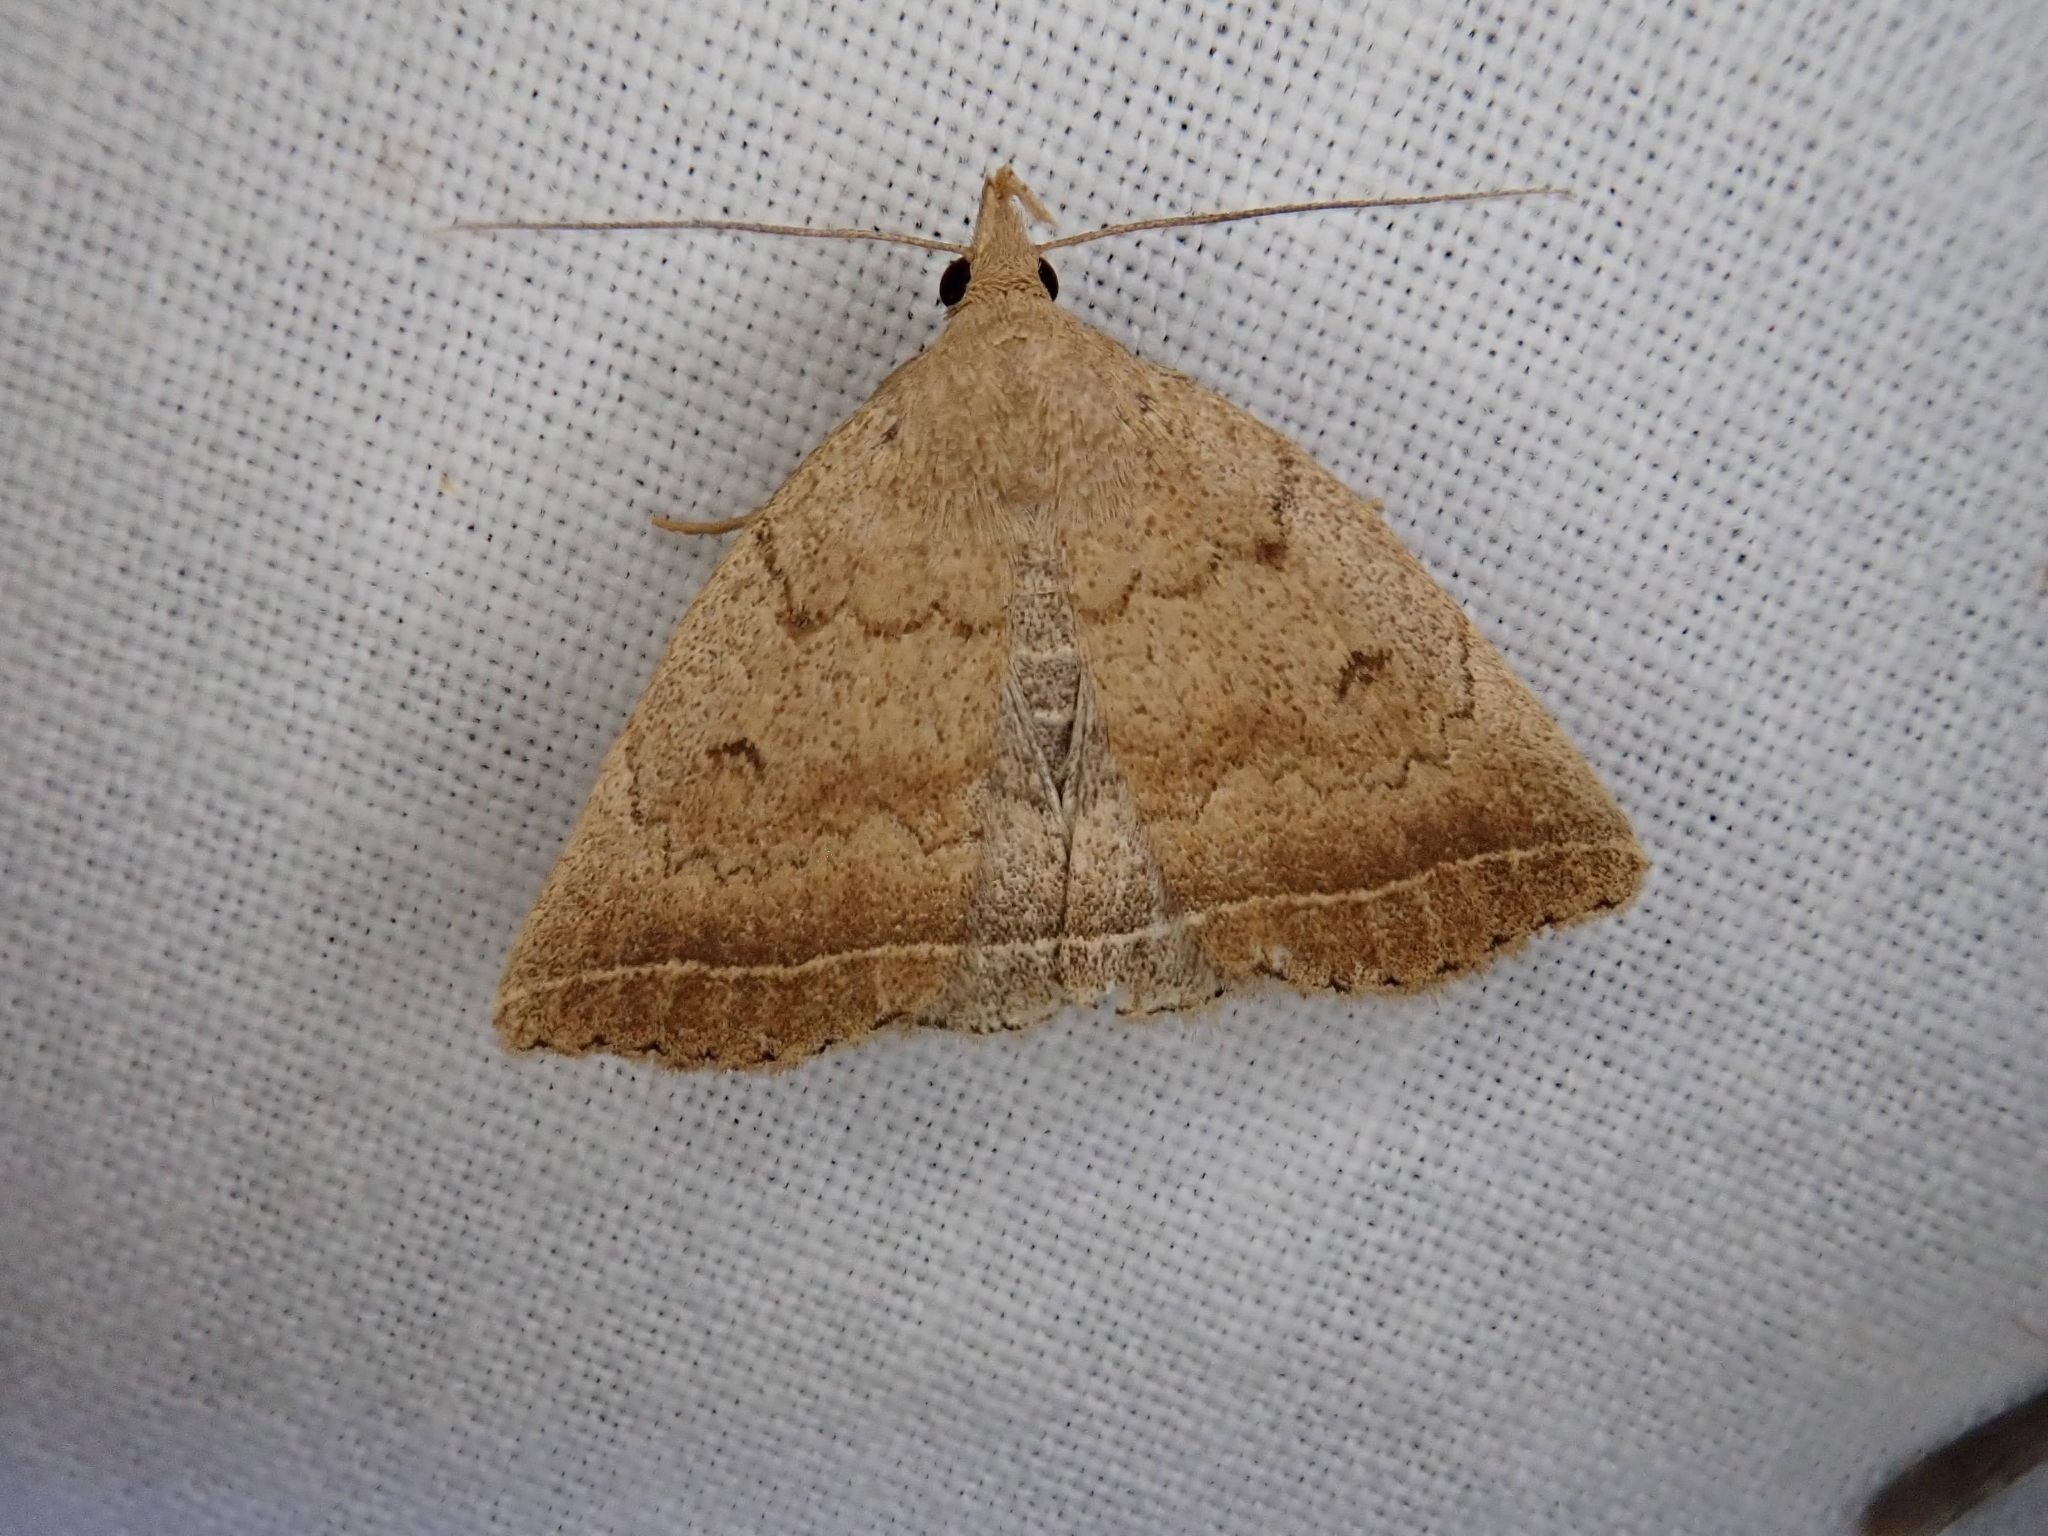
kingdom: Animalia
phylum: Arthropoda
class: Insecta
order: Lepidoptera
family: Erebidae
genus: Zanclognatha
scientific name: Zanclognatha jacchusalis
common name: Yellowish zanclognatha
